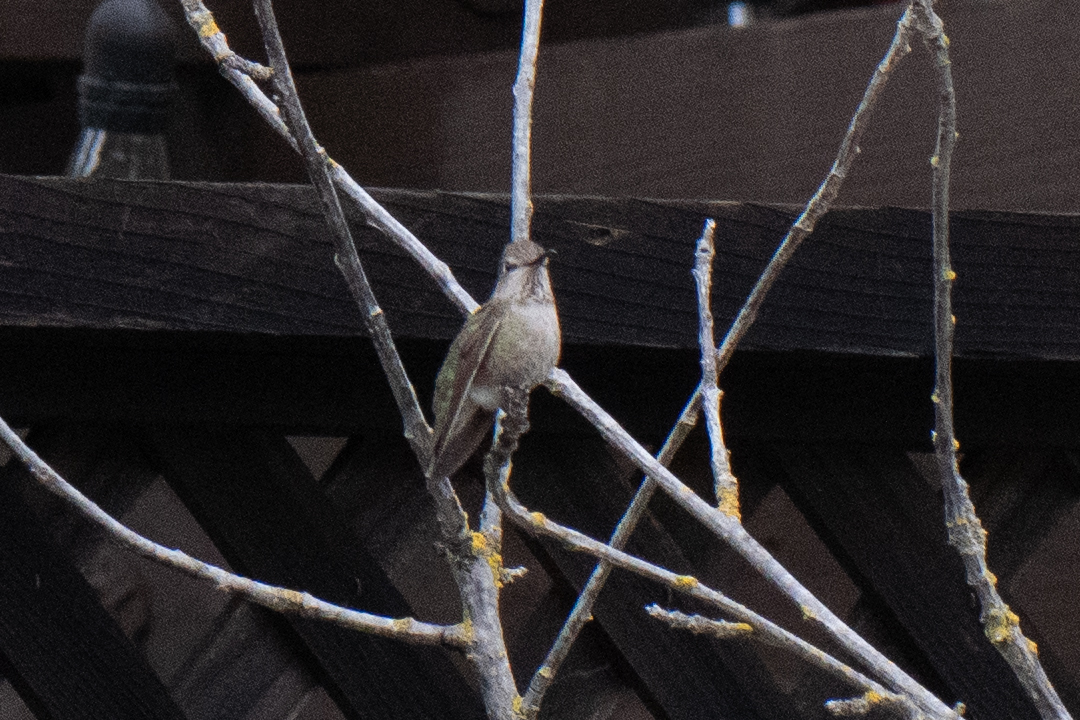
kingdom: Animalia
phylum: Chordata
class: Aves
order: Apodiformes
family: Trochilidae
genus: Calypte
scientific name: Calypte anna
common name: Anna's hummingbird
